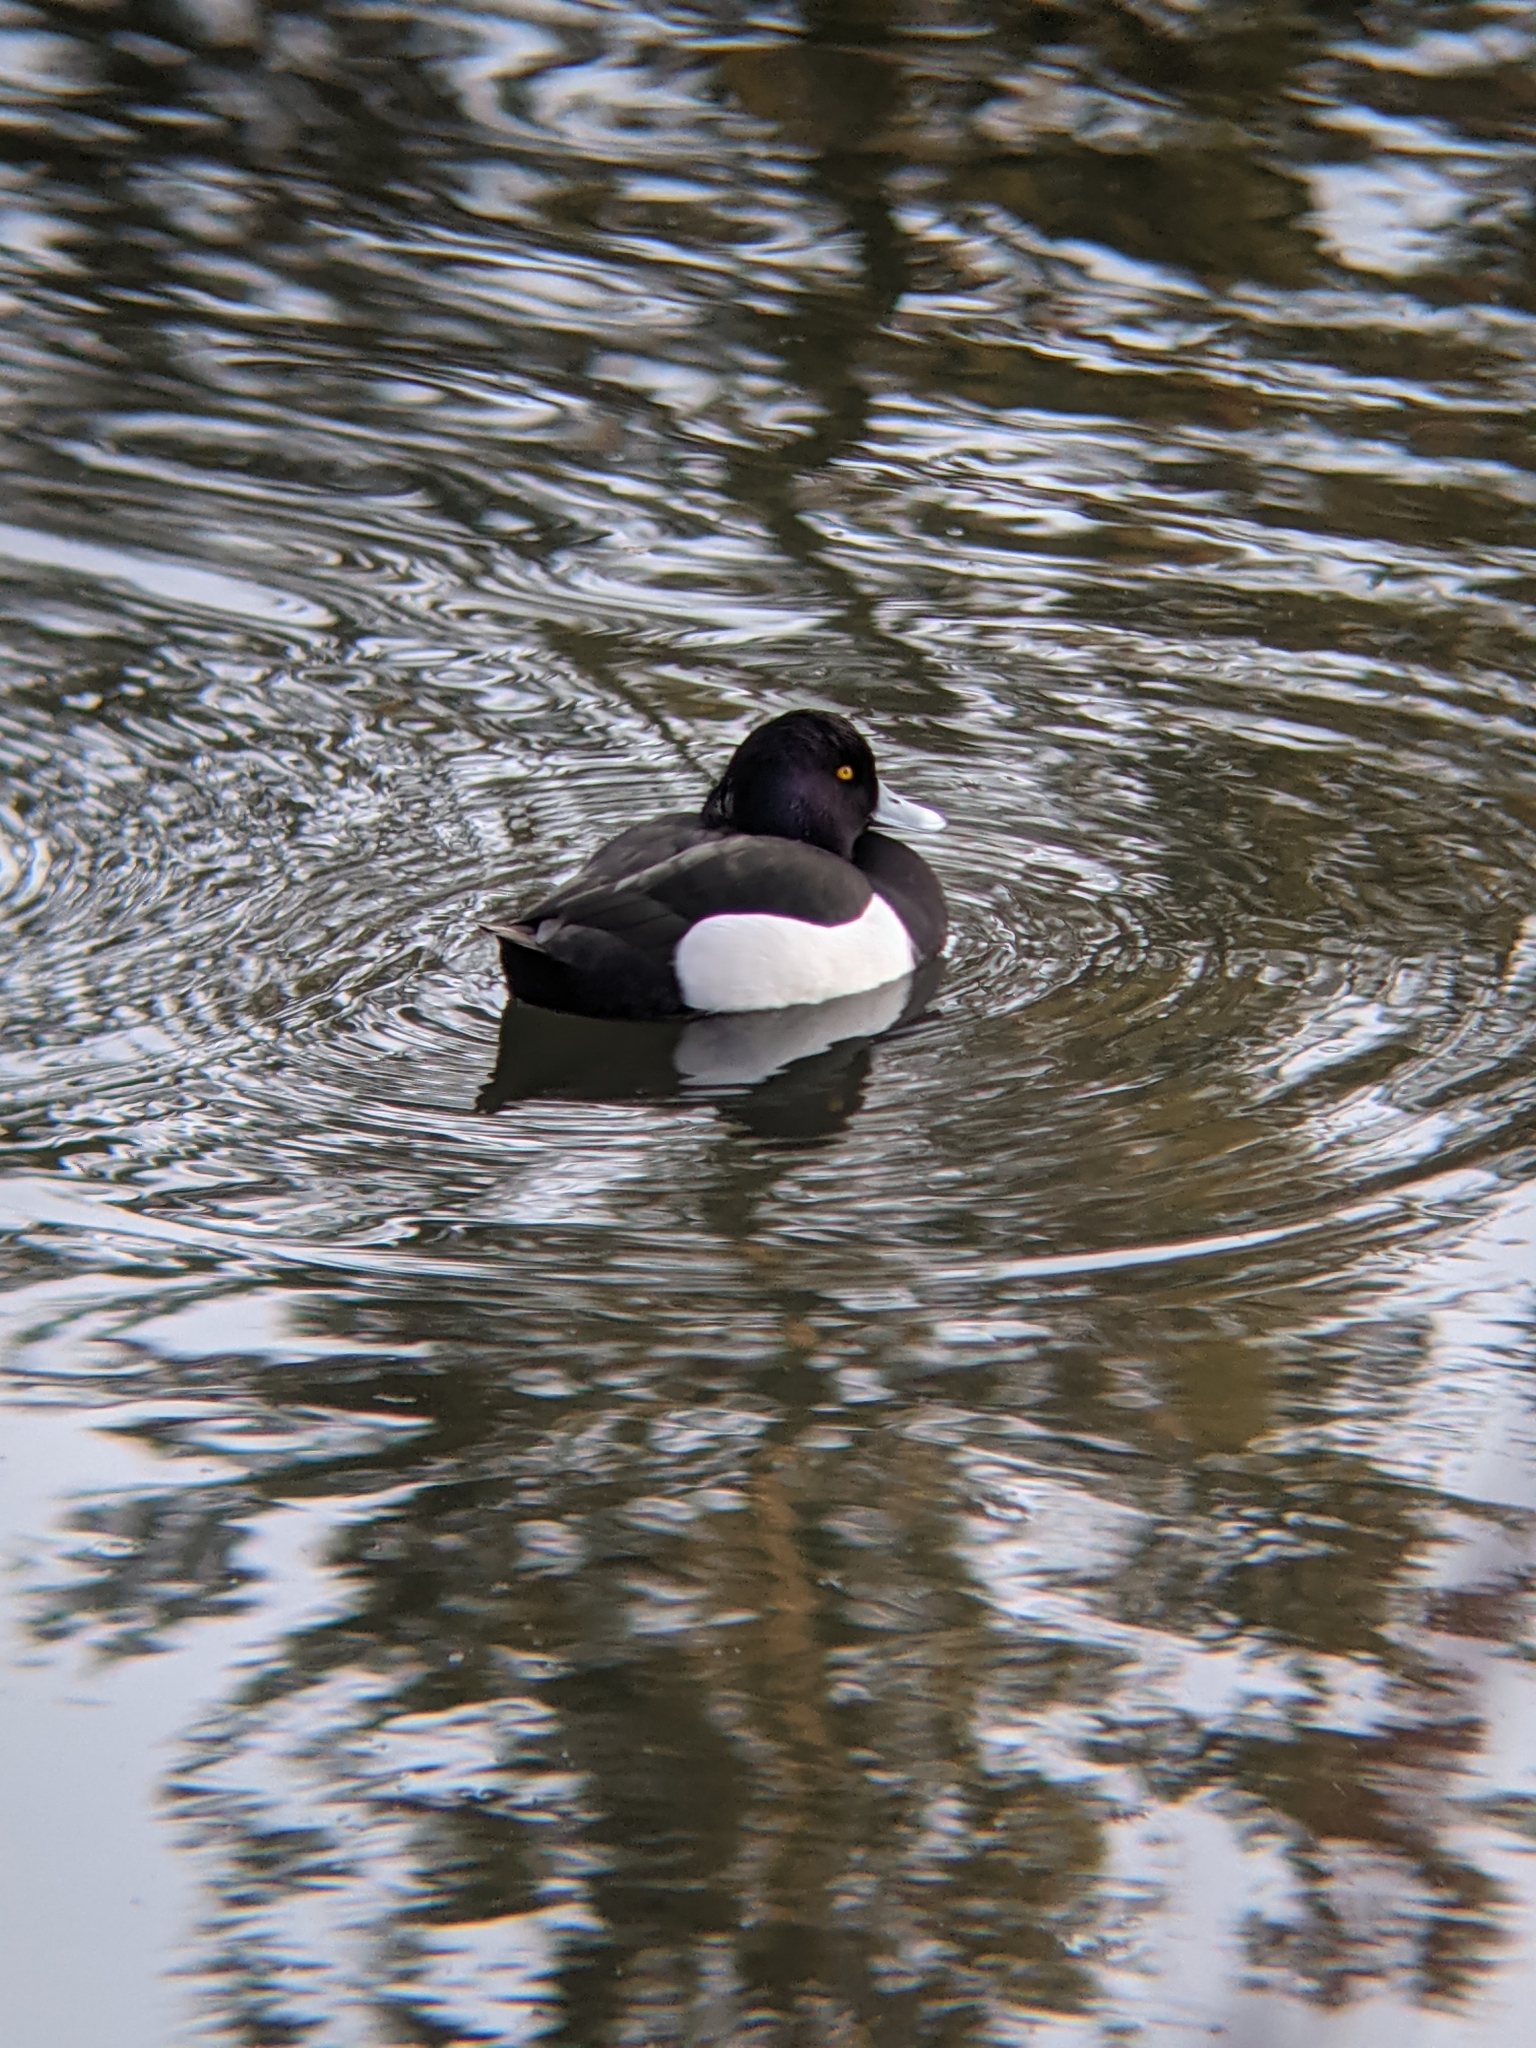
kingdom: Animalia
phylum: Chordata
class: Aves
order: Anseriformes
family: Anatidae
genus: Aythya
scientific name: Aythya fuligula
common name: Tufted duck
